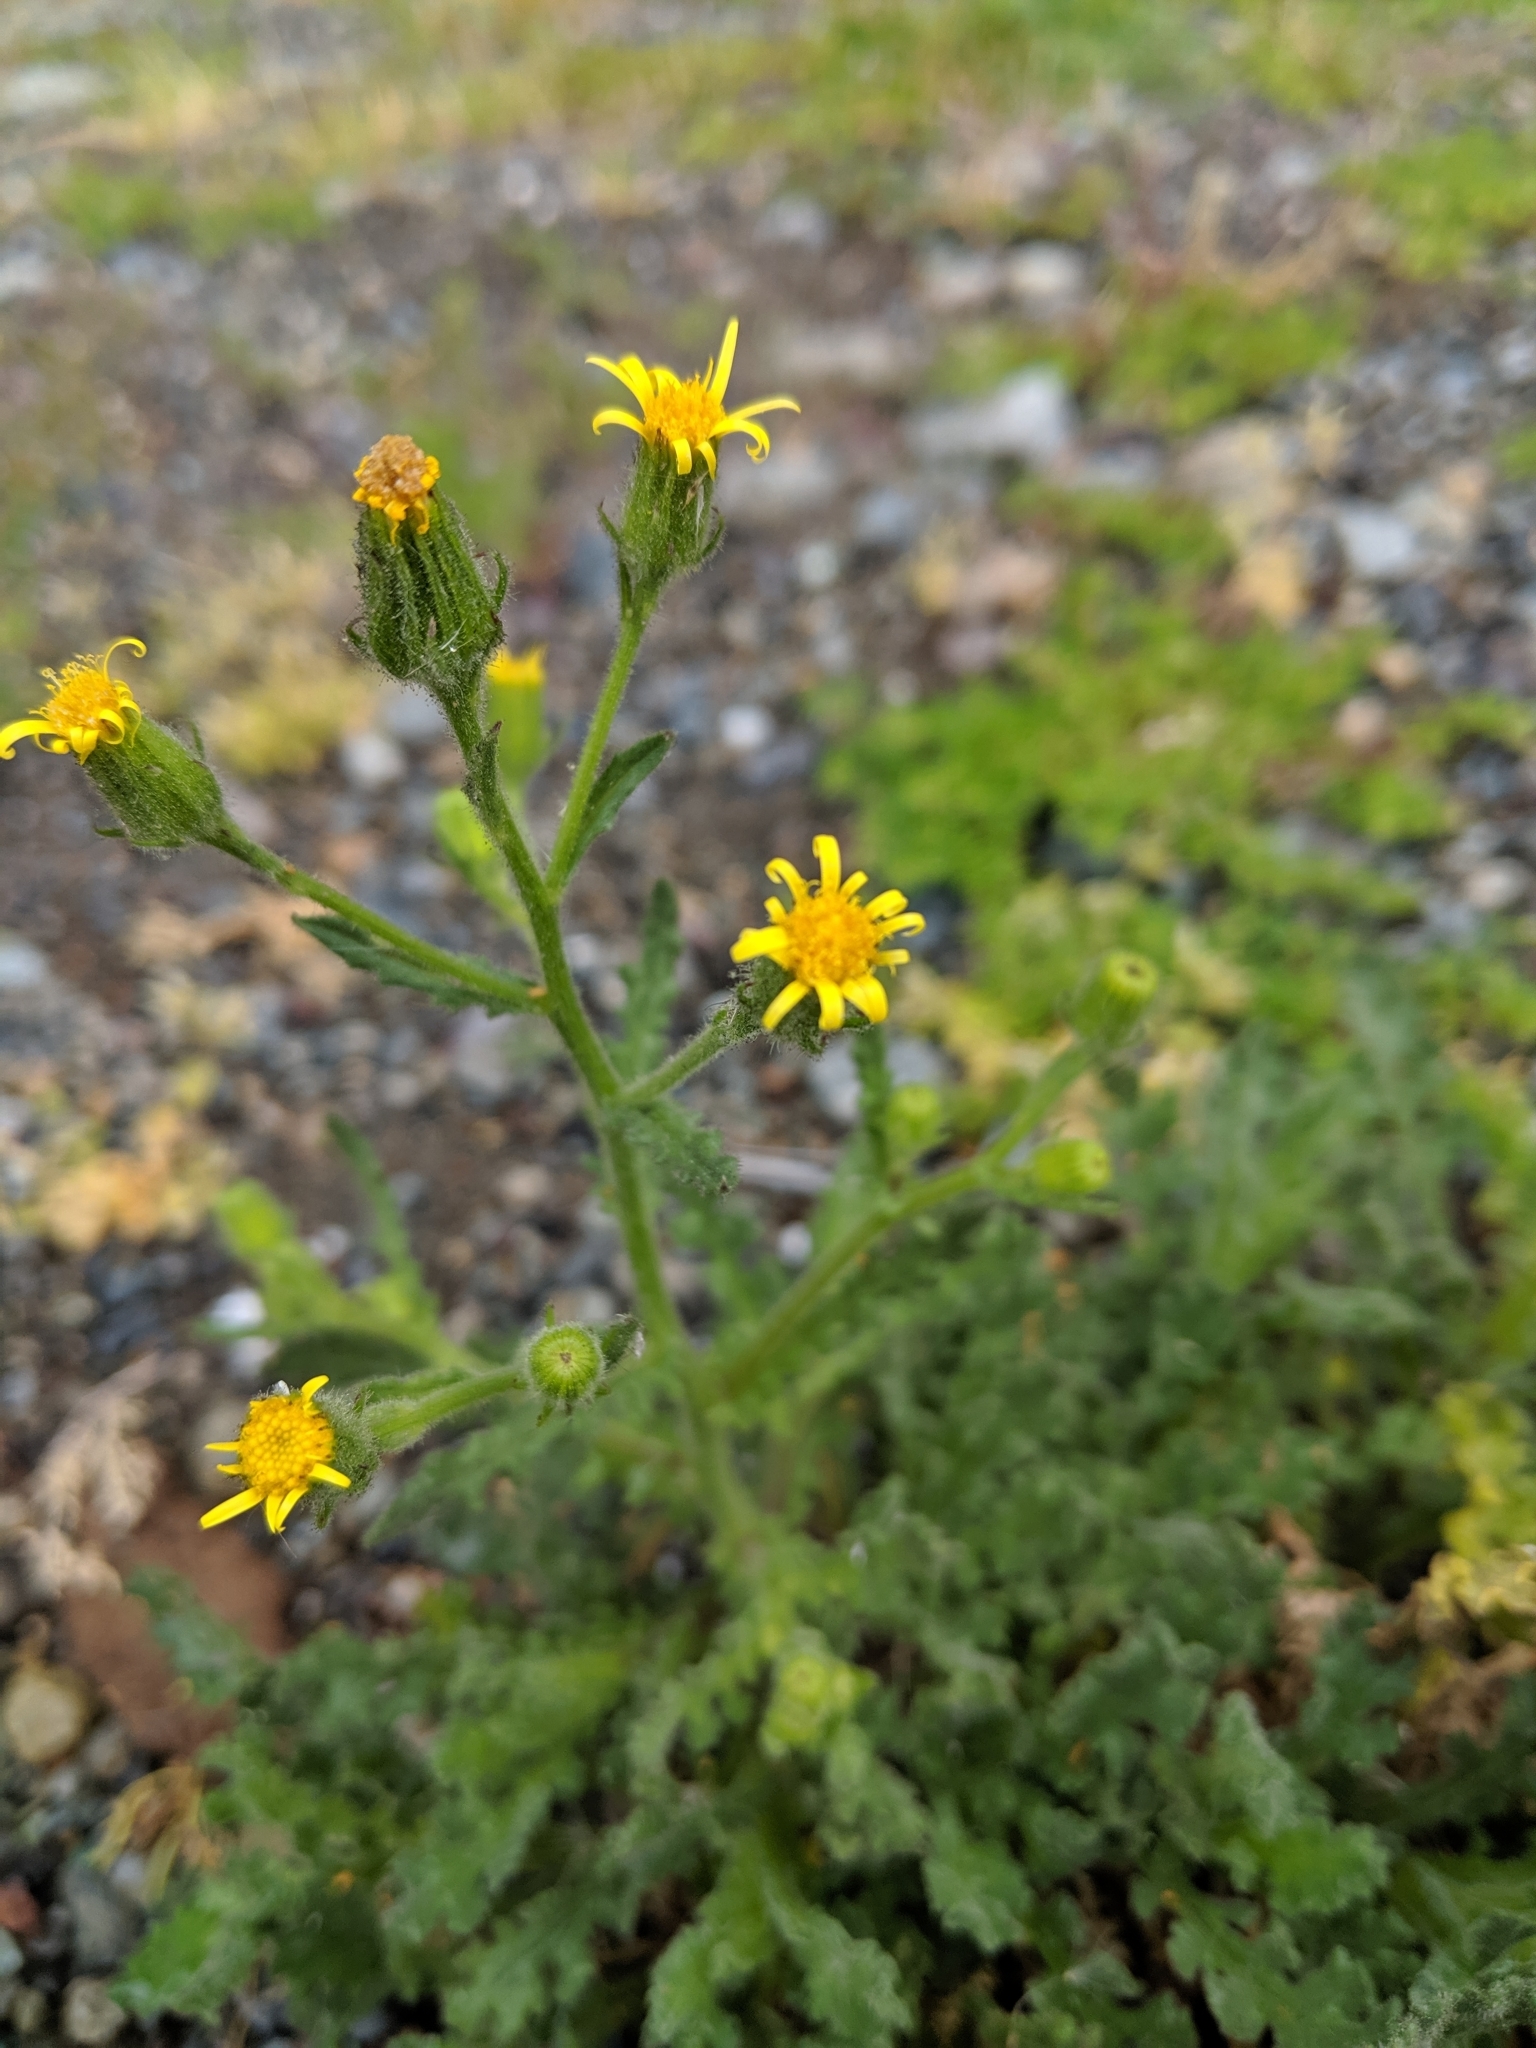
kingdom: Plantae
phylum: Tracheophyta
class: Magnoliopsida
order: Asterales
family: Asteraceae
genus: Senecio
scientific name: Senecio viscosus
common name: Sticky groundsel
